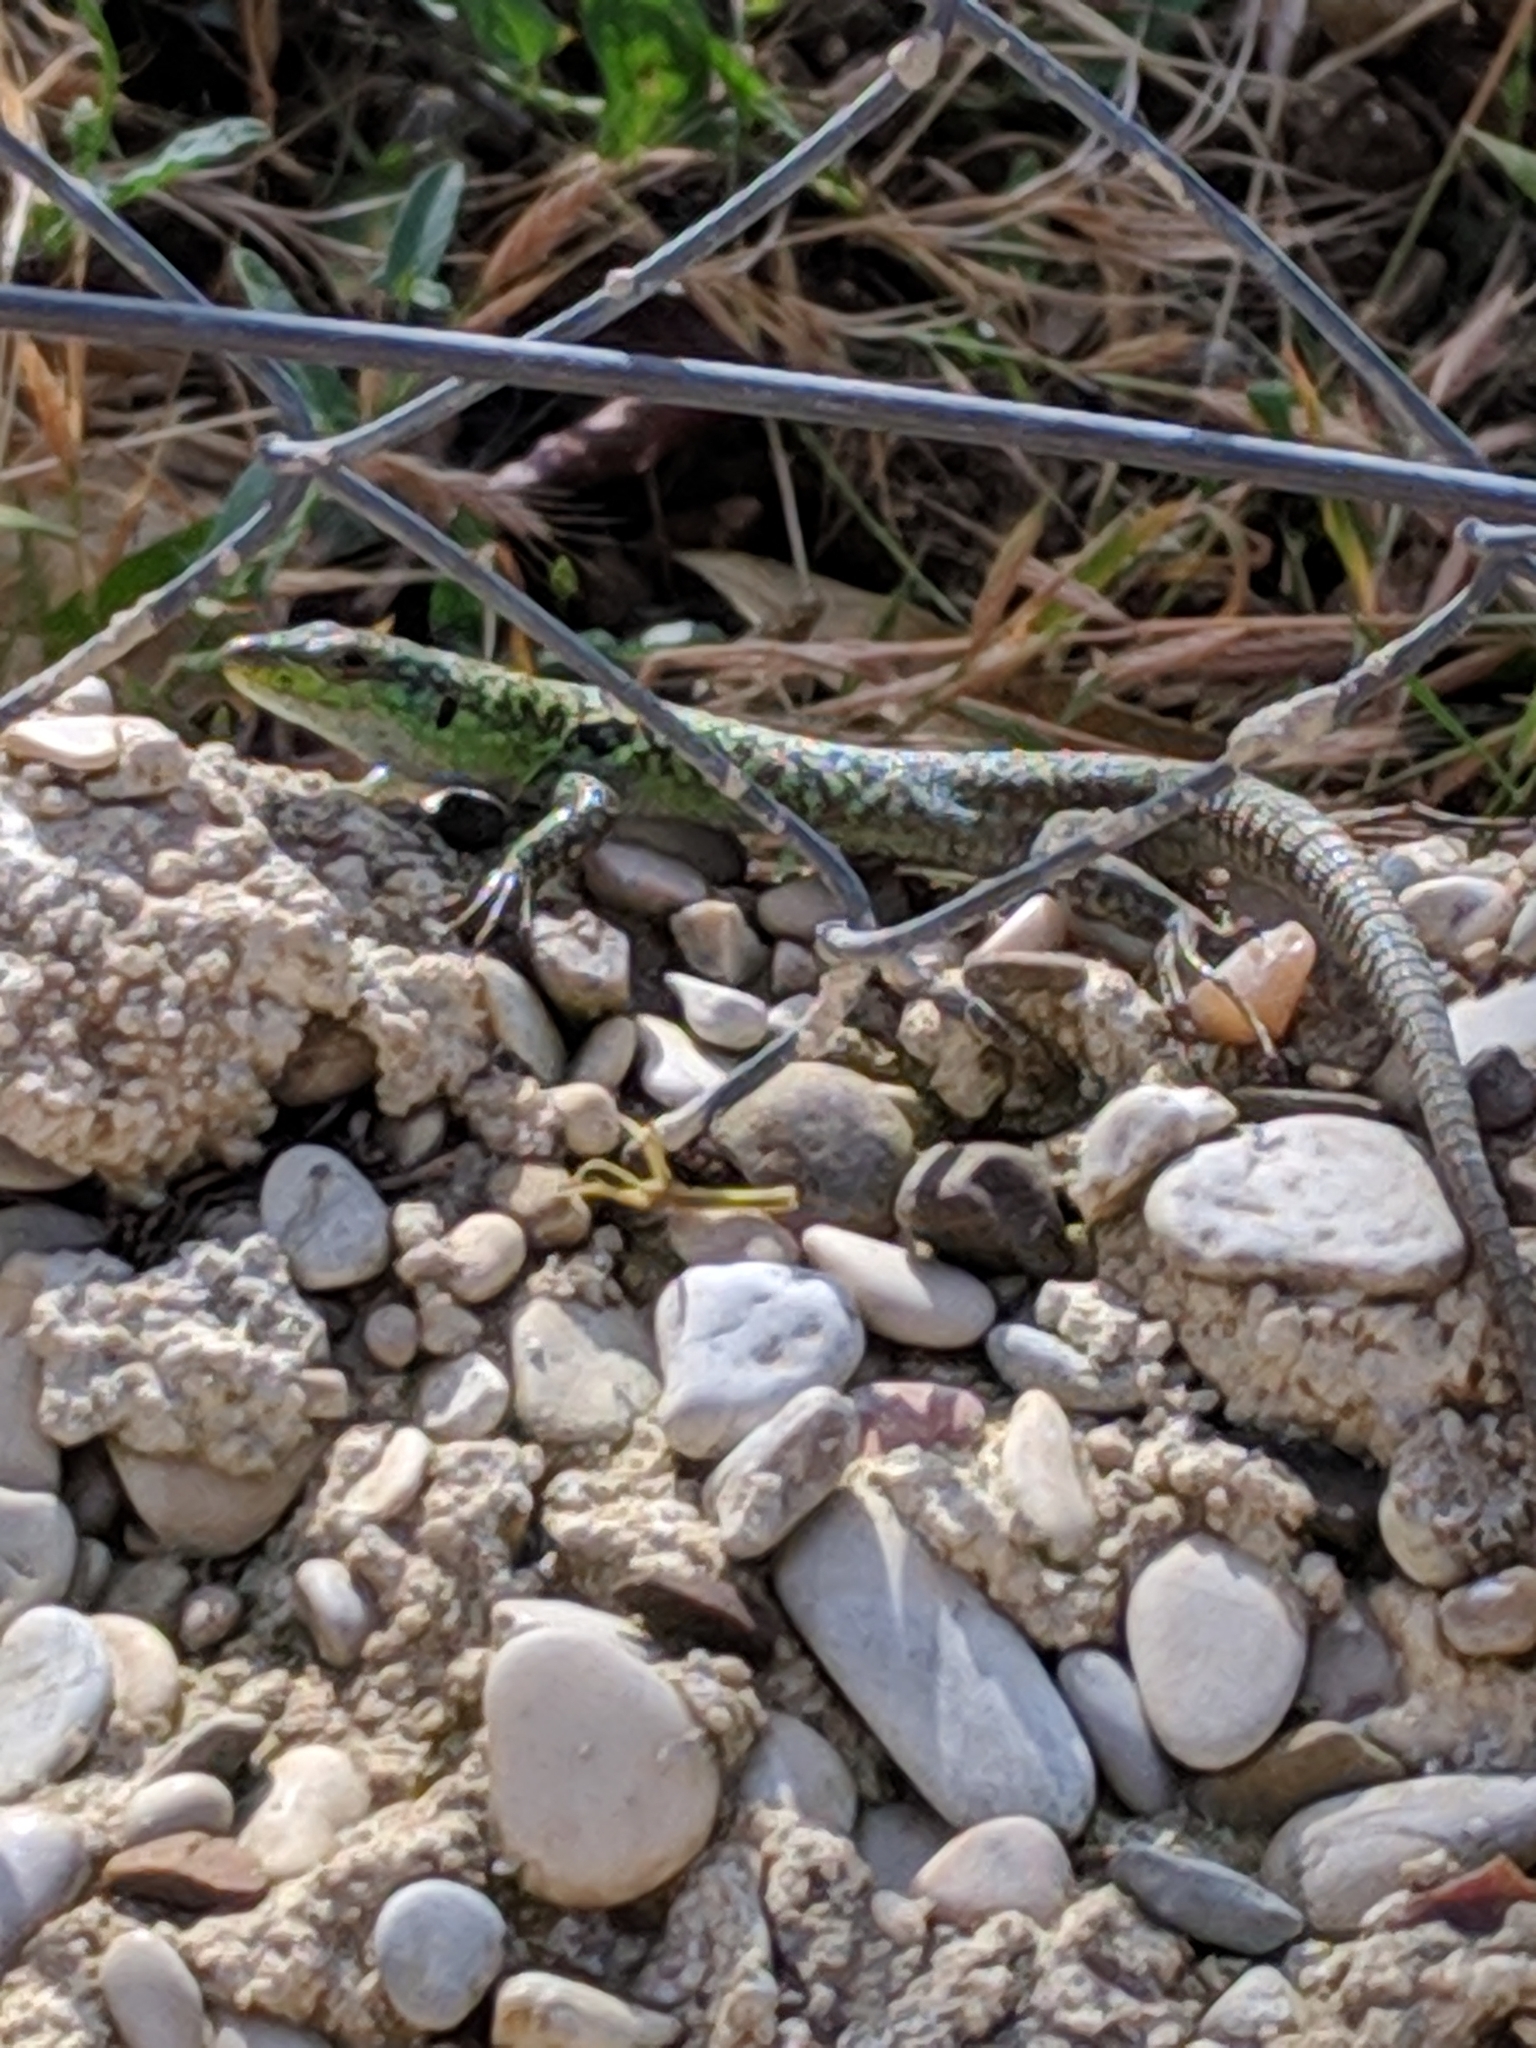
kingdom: Animalia
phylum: Chordata
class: Squamata
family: Lacertidae
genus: Podarcis
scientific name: Podarcis siculus
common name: Italian wall lizard
